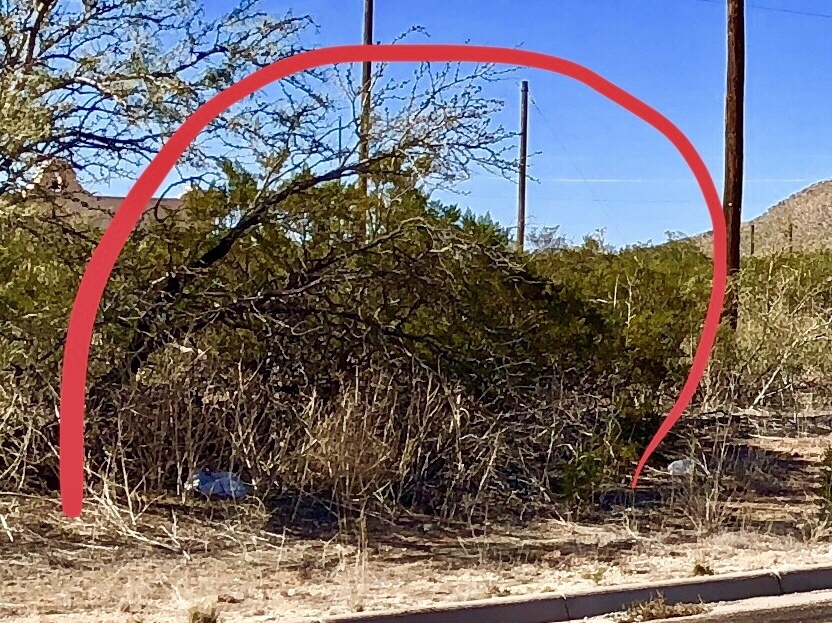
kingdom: Plantae
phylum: Tracheophyta
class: Magnoliopsida
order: Zygophyllales
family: Zygophyllaceae
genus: Larrea
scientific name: Larrea tridentata
